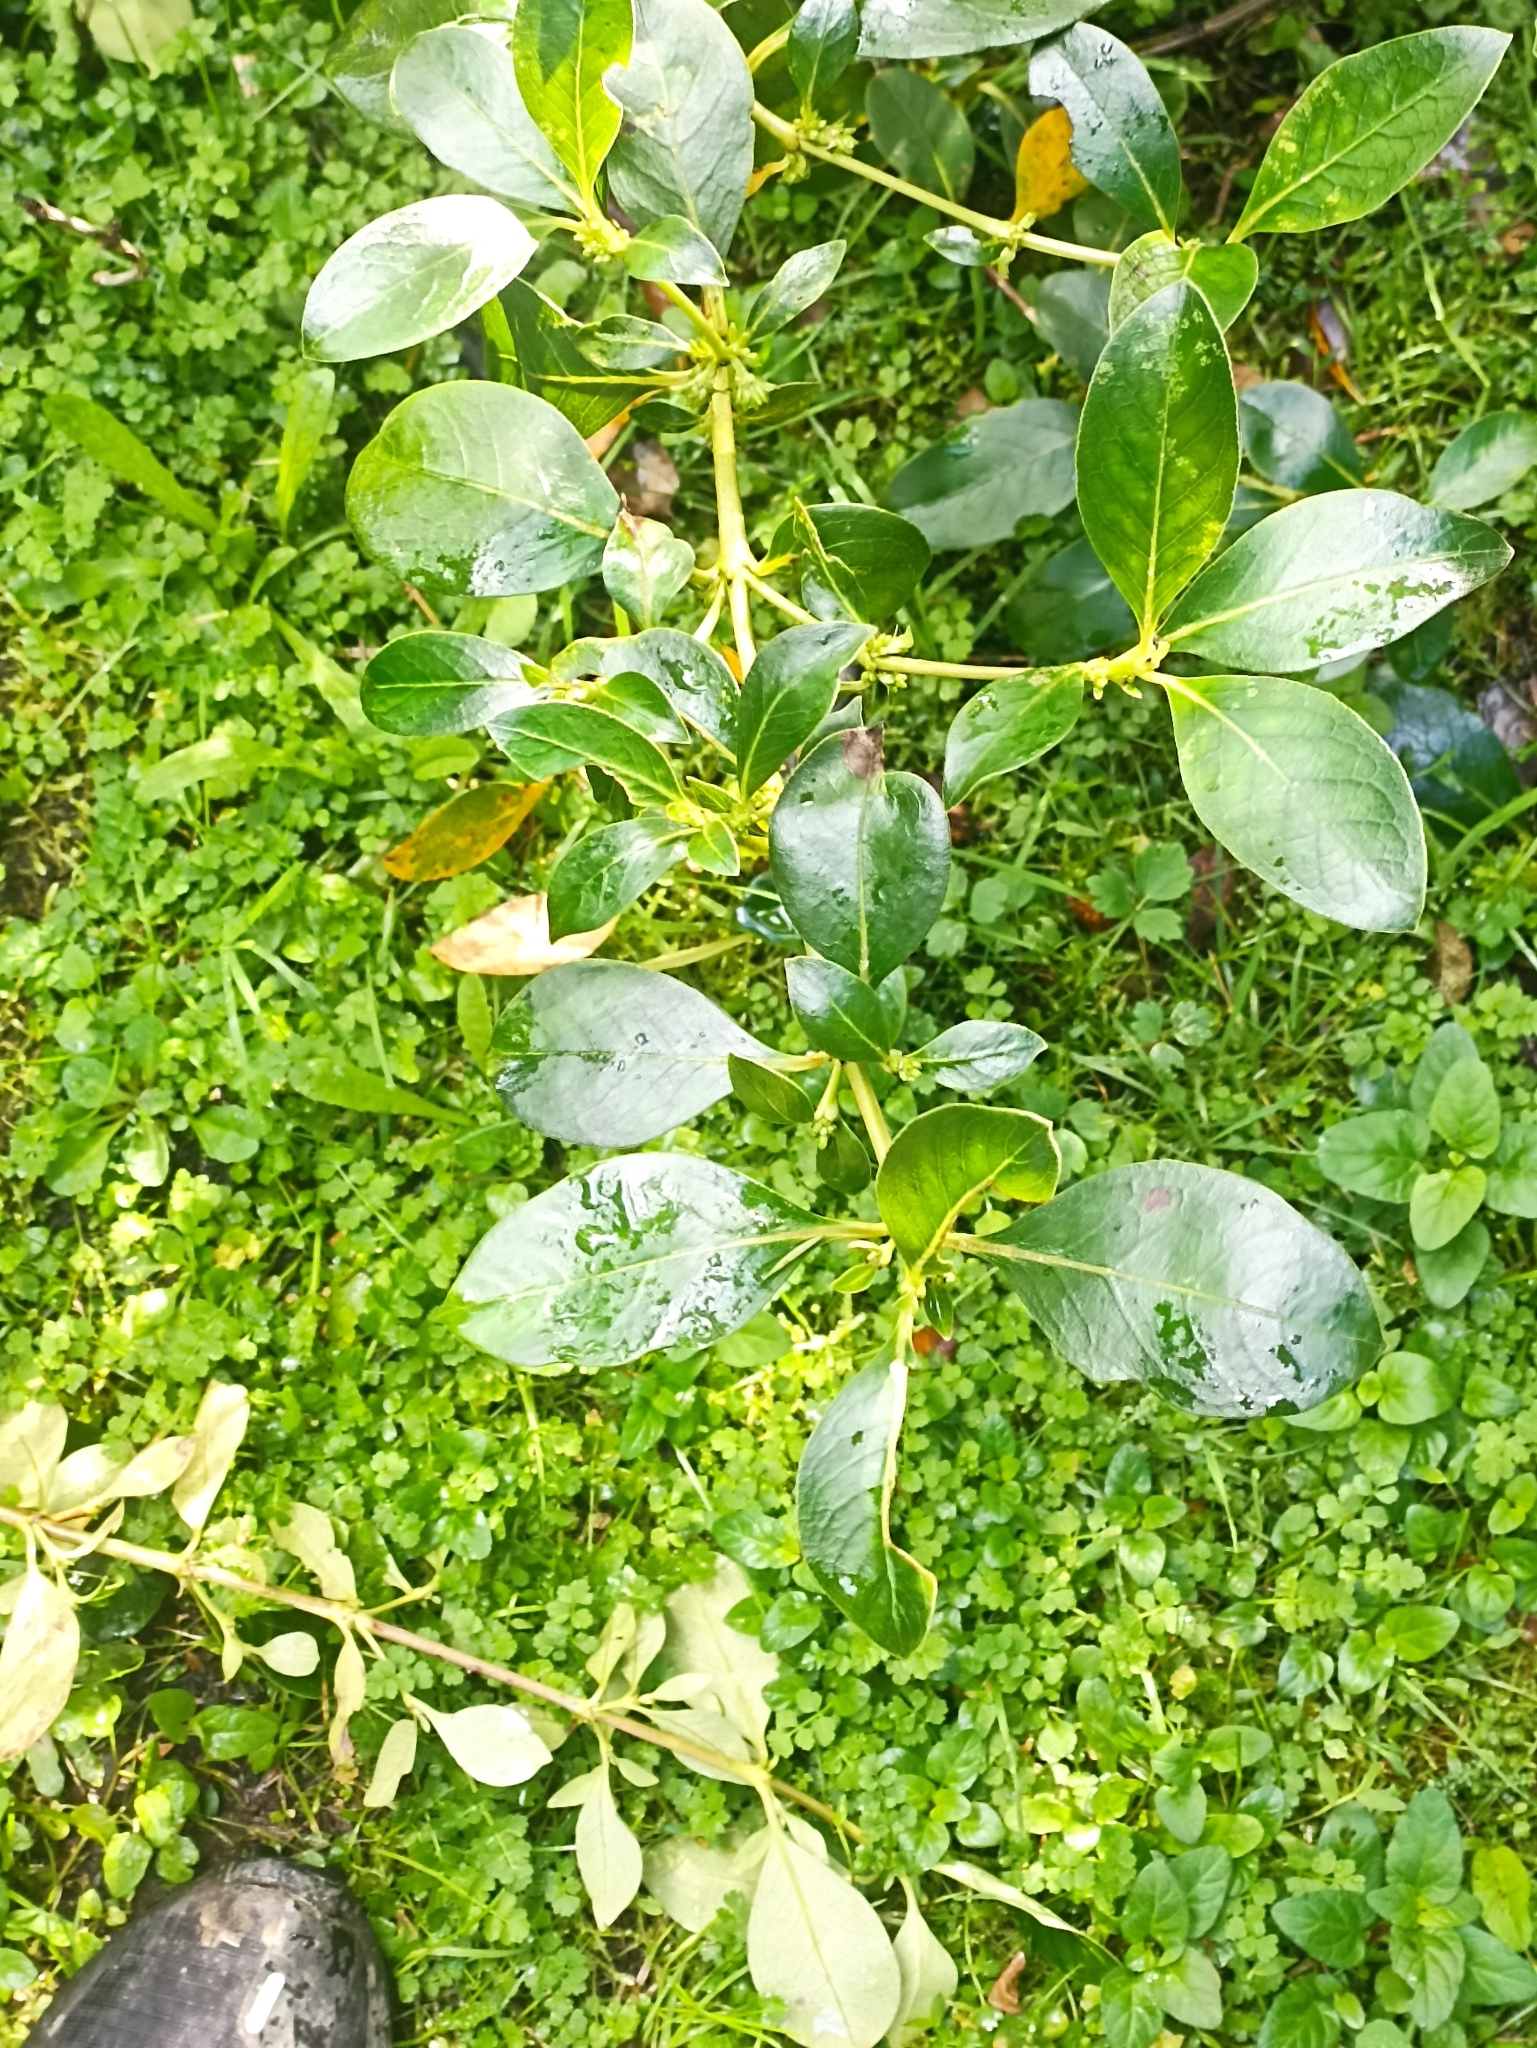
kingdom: Plantae
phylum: Tracheophyta
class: Magnoliopsida
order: Gentianales
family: Rubiaceae
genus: Coprosma
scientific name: Coprosma robusta
